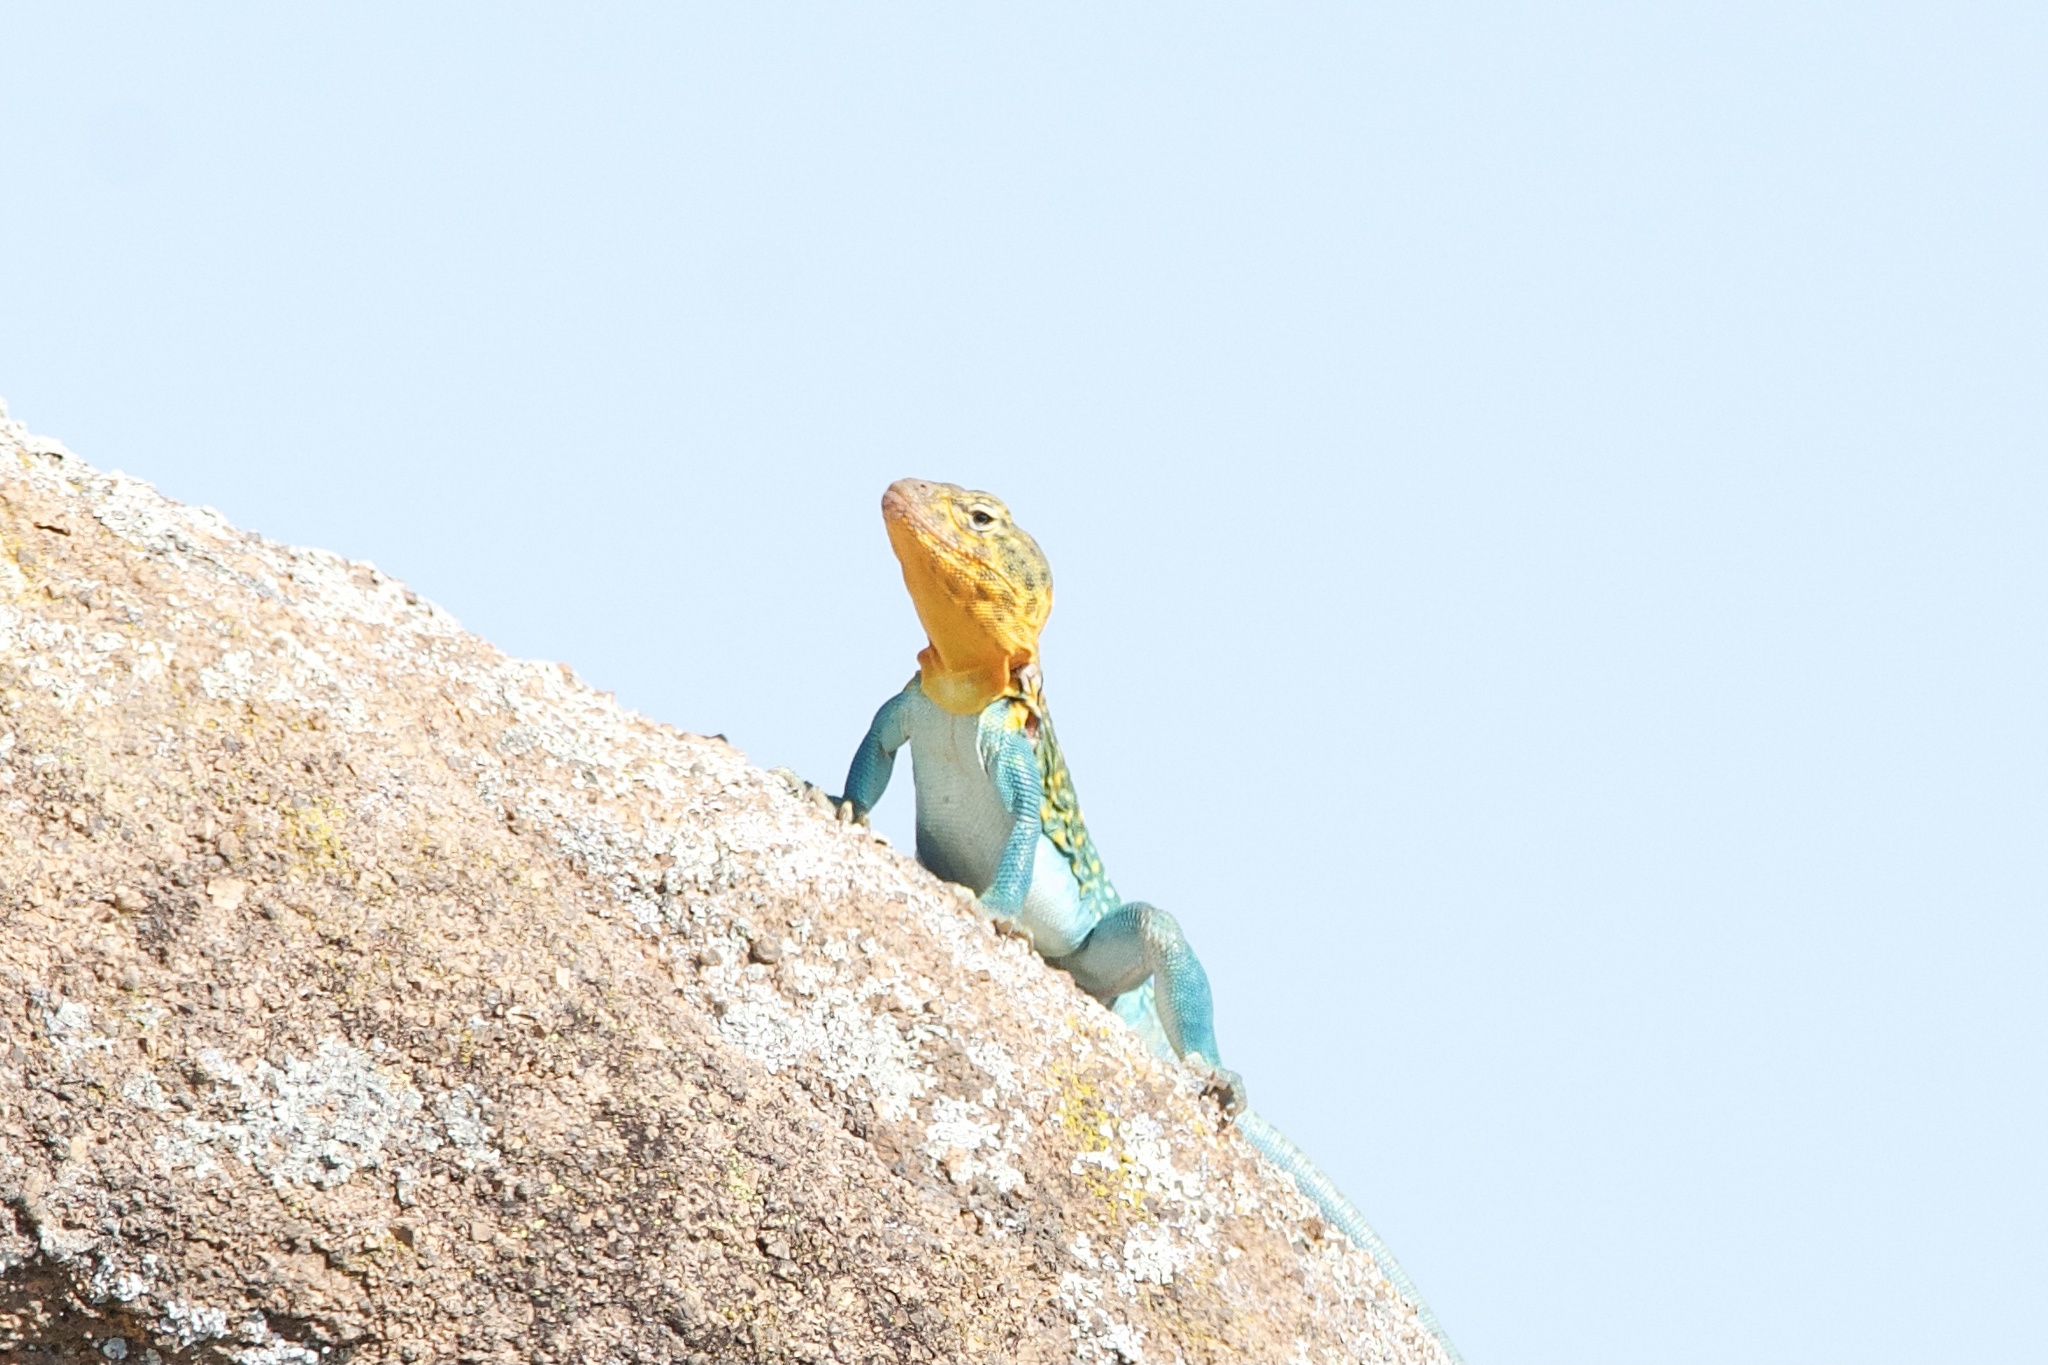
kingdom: Animalia
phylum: Chordata
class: Squamata
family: Crotaphytidae
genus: Crotaphytus
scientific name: Crotaphytus collaris
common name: Collared lizard
